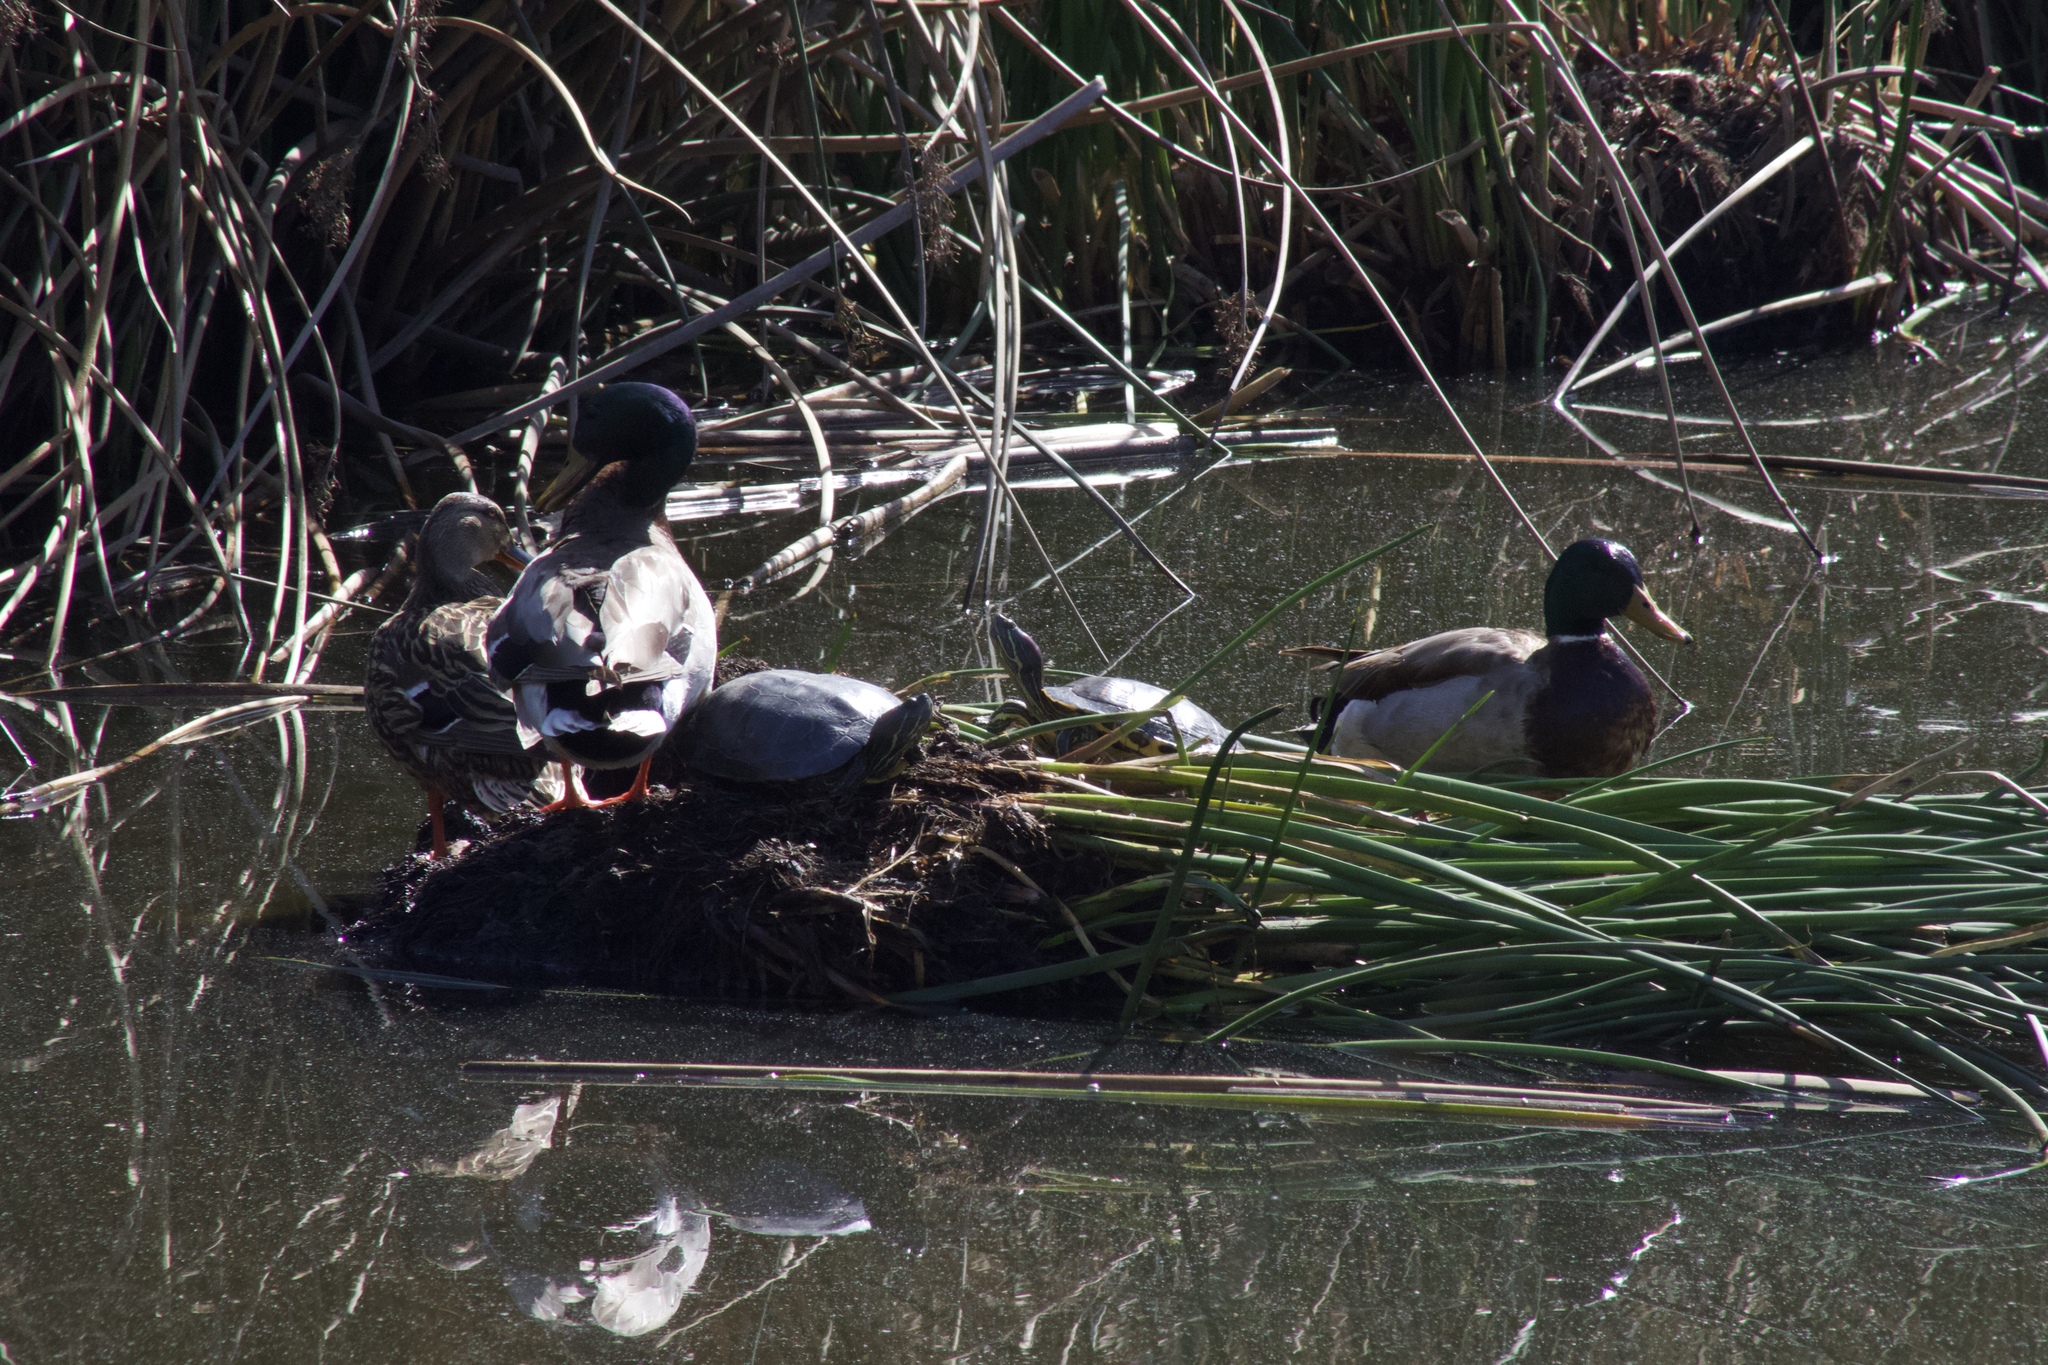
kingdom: Animalia
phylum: Chordata
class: Testudines
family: Emydidae
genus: Trachemys
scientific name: Trachemys scripta
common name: Slider
